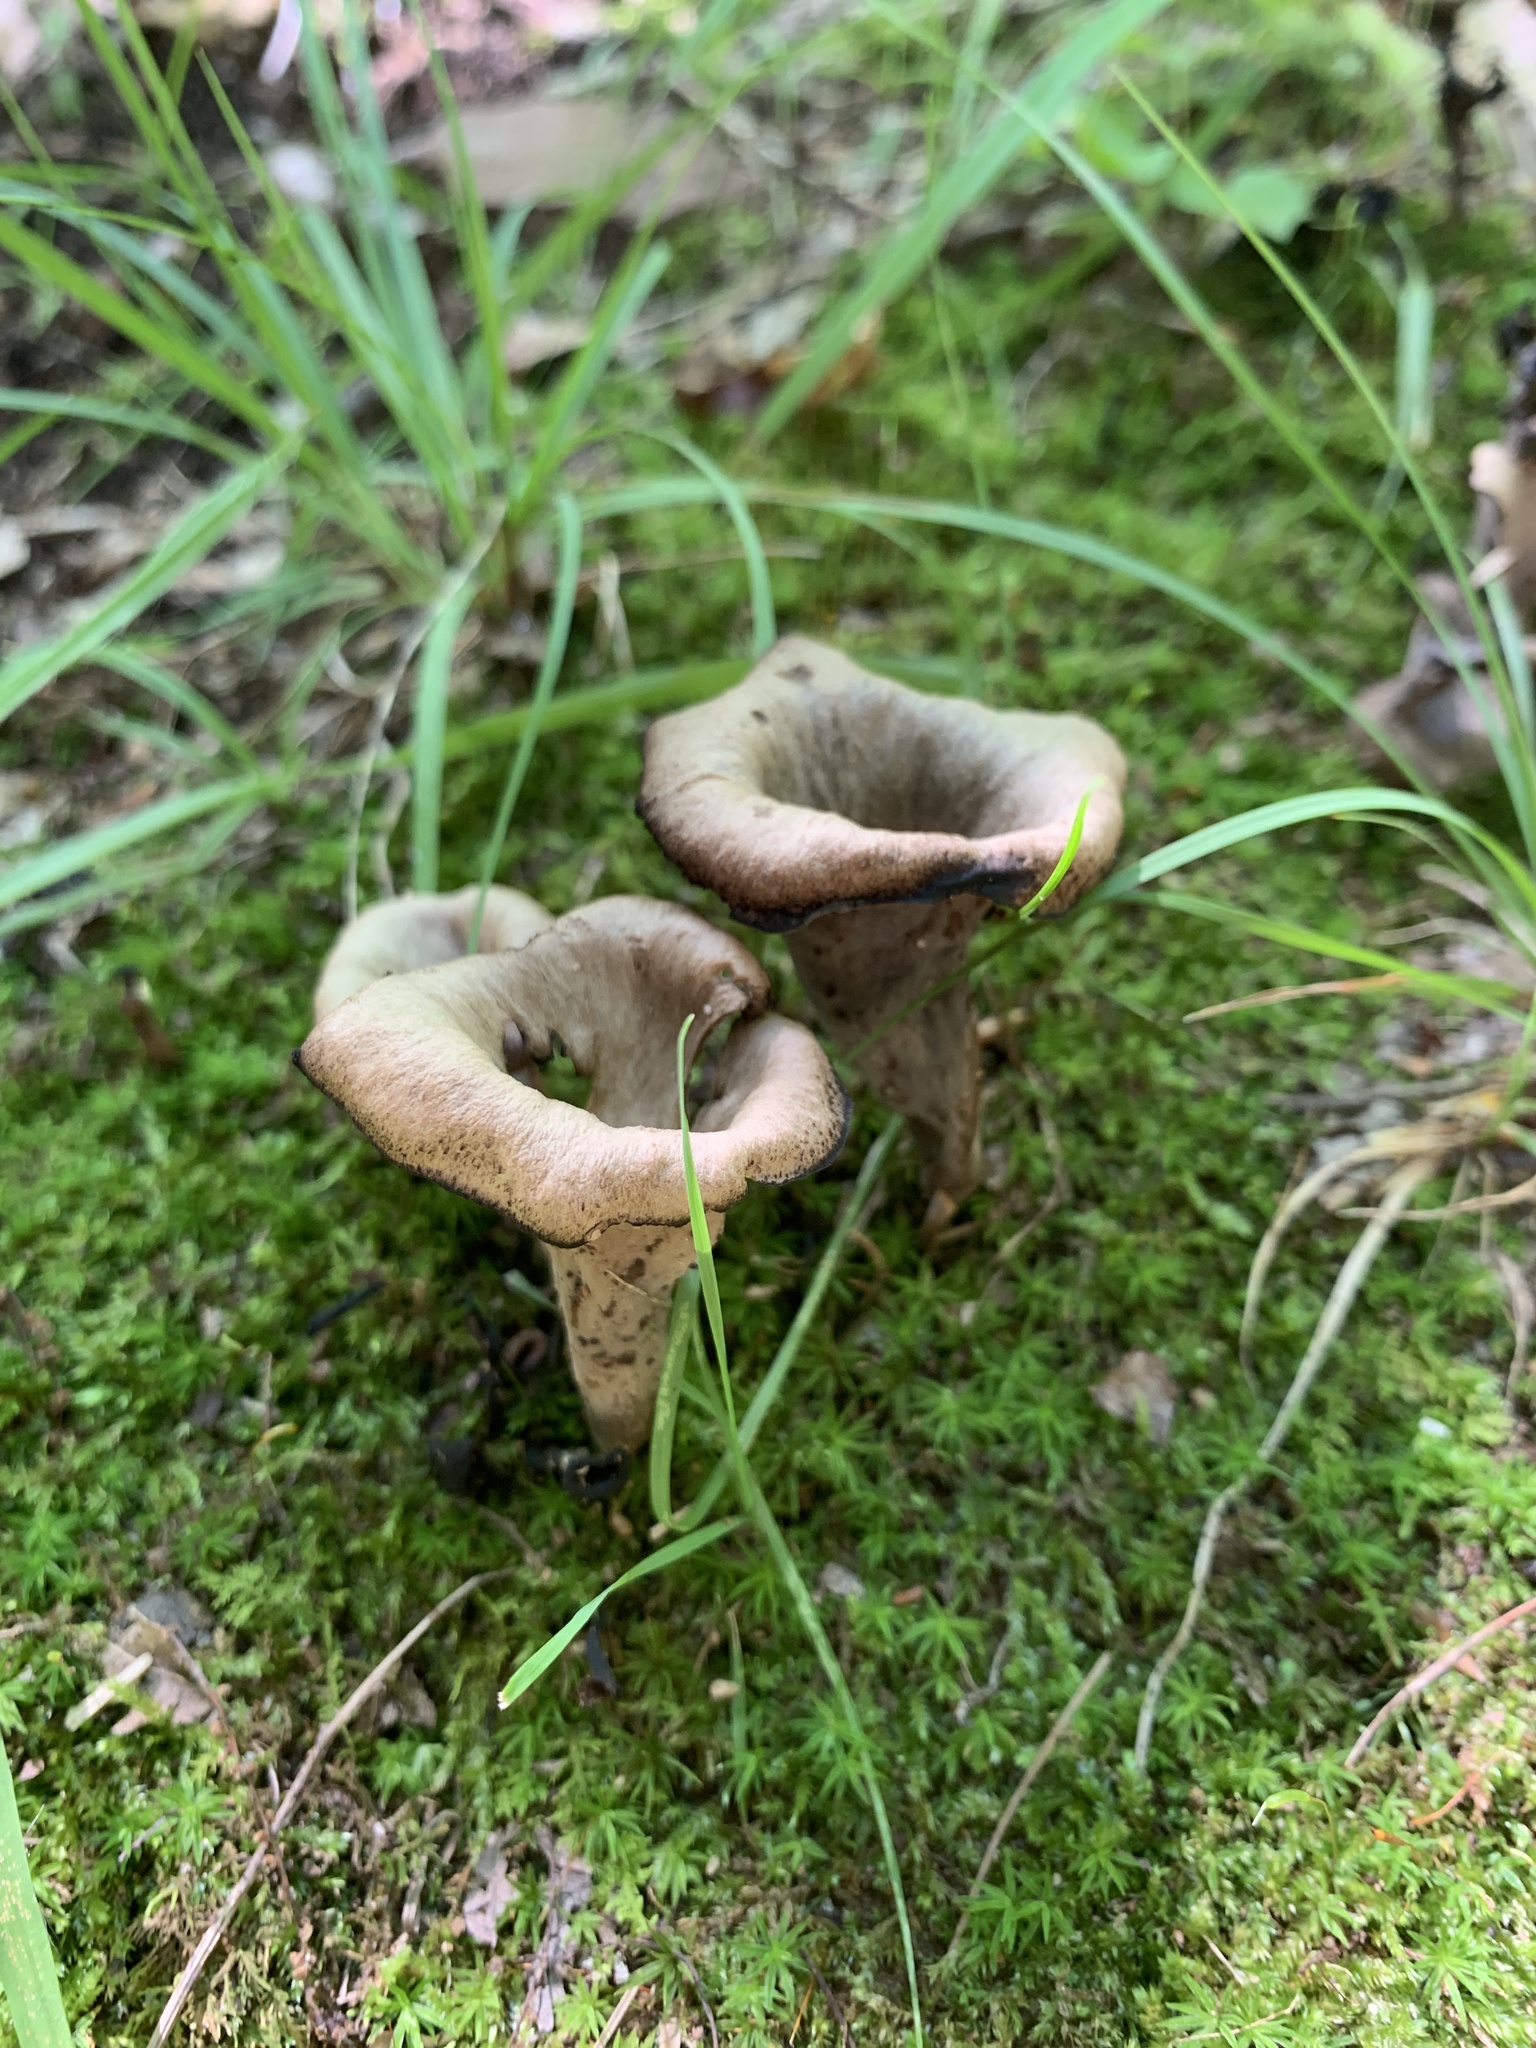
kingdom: Fungi
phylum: Basidiomycota
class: Agaricomycetes
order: Cantharellales
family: Hydnaceae
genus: Craterellus
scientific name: Craterellus cornucopioides
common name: Horn of plenty
